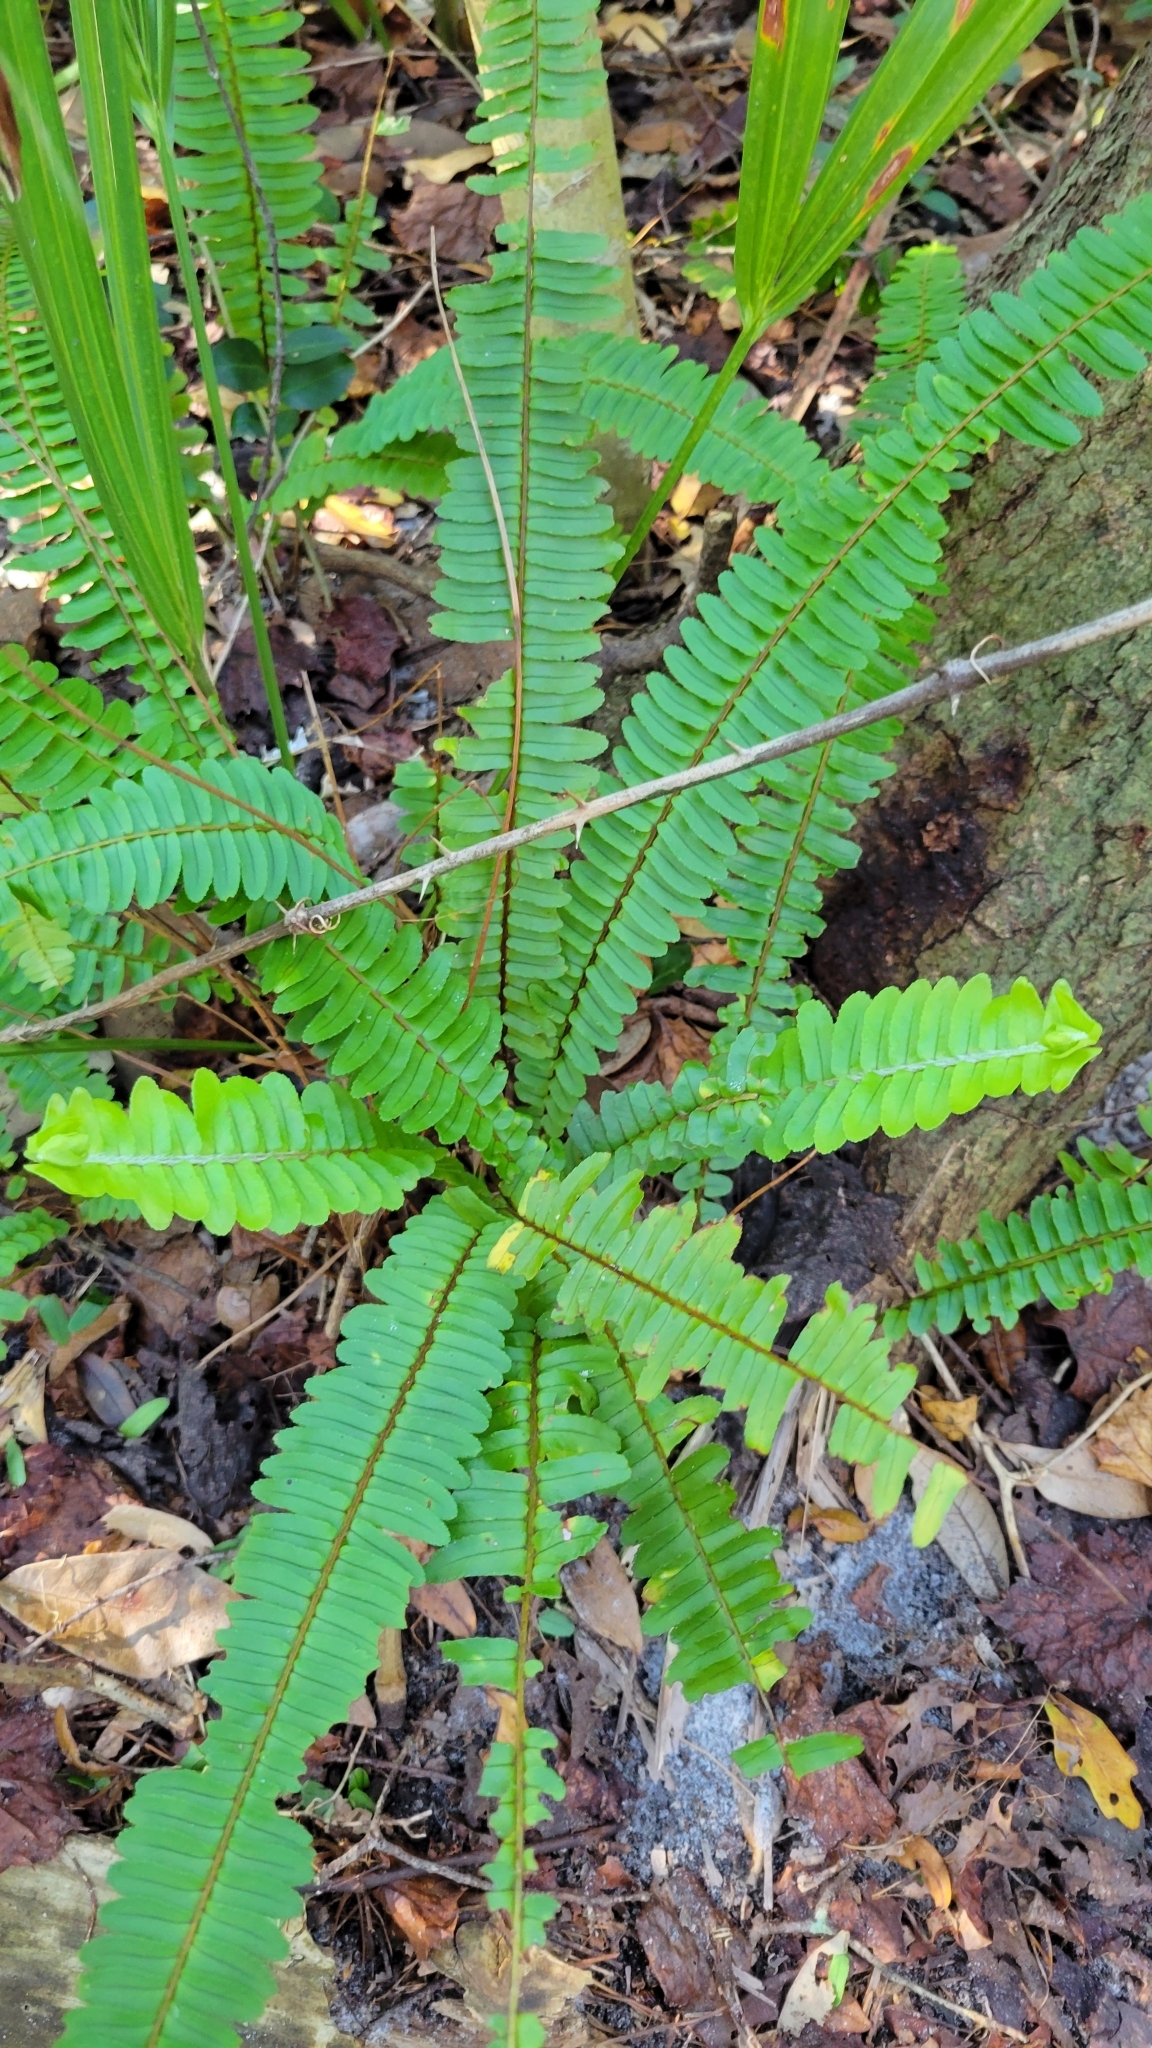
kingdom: Plantae
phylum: Tracheophyta
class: Polypodiopsida
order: Polypodiales
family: Nephrolepidaceae
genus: Nephrolepis
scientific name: Nephrolepis cordifolia
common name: Narrow swordfern
